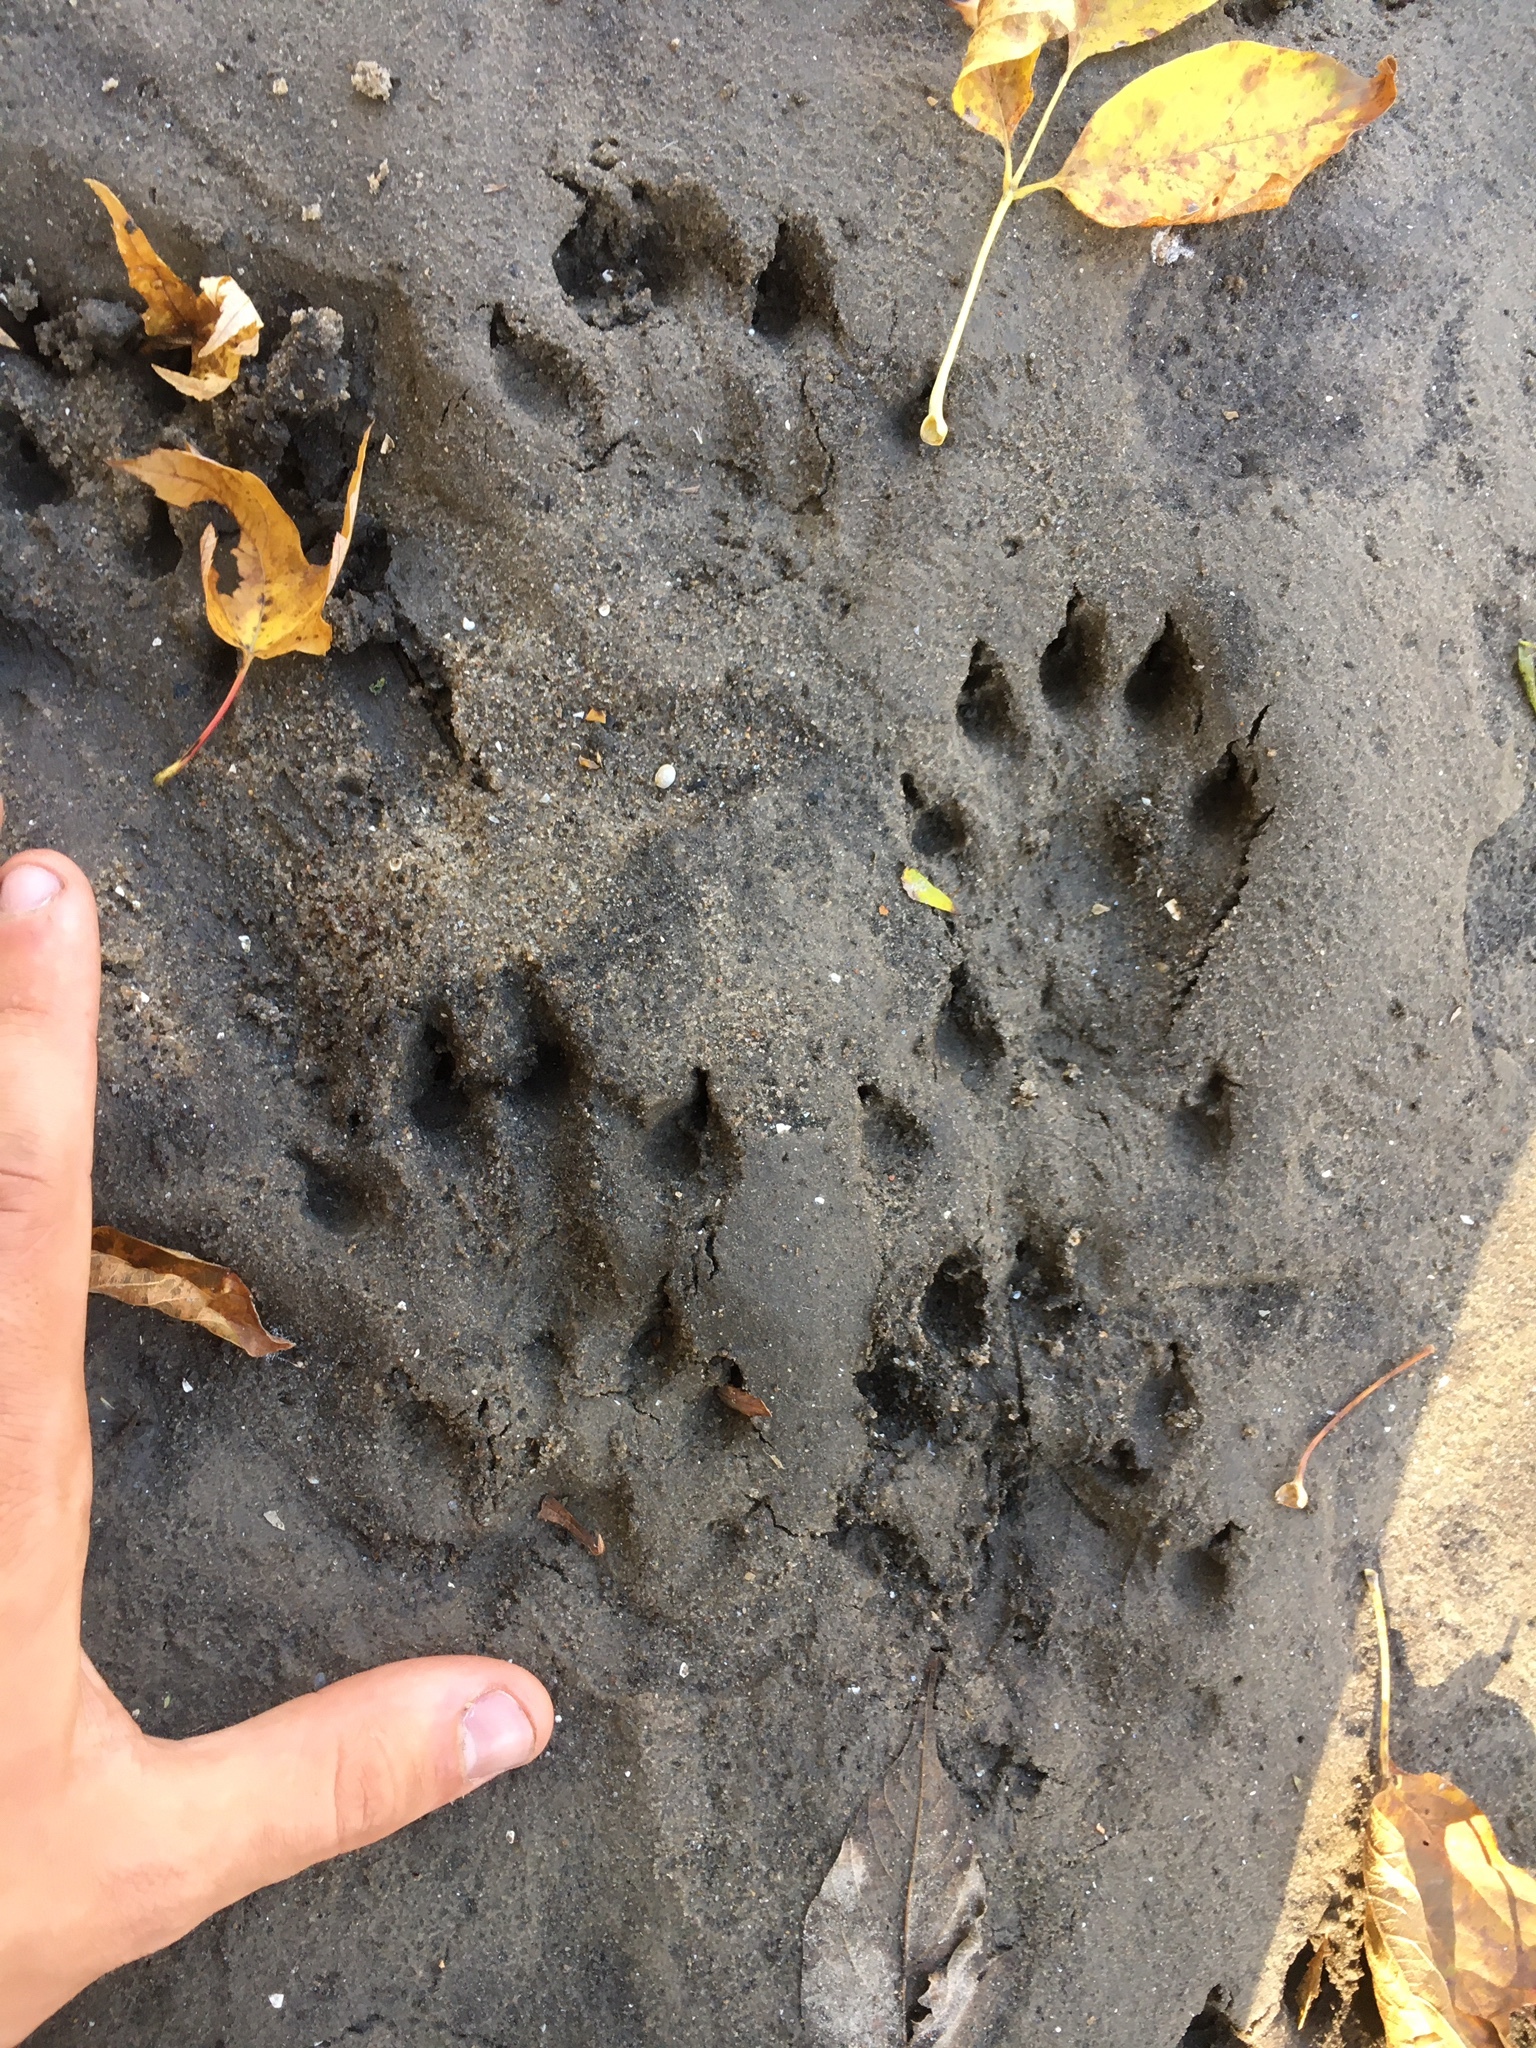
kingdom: Animalia
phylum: Chordata
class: Mammalia
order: Carnivora
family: Mustelidae
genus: Lontra
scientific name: Lontra canadensis
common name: North american river otter
